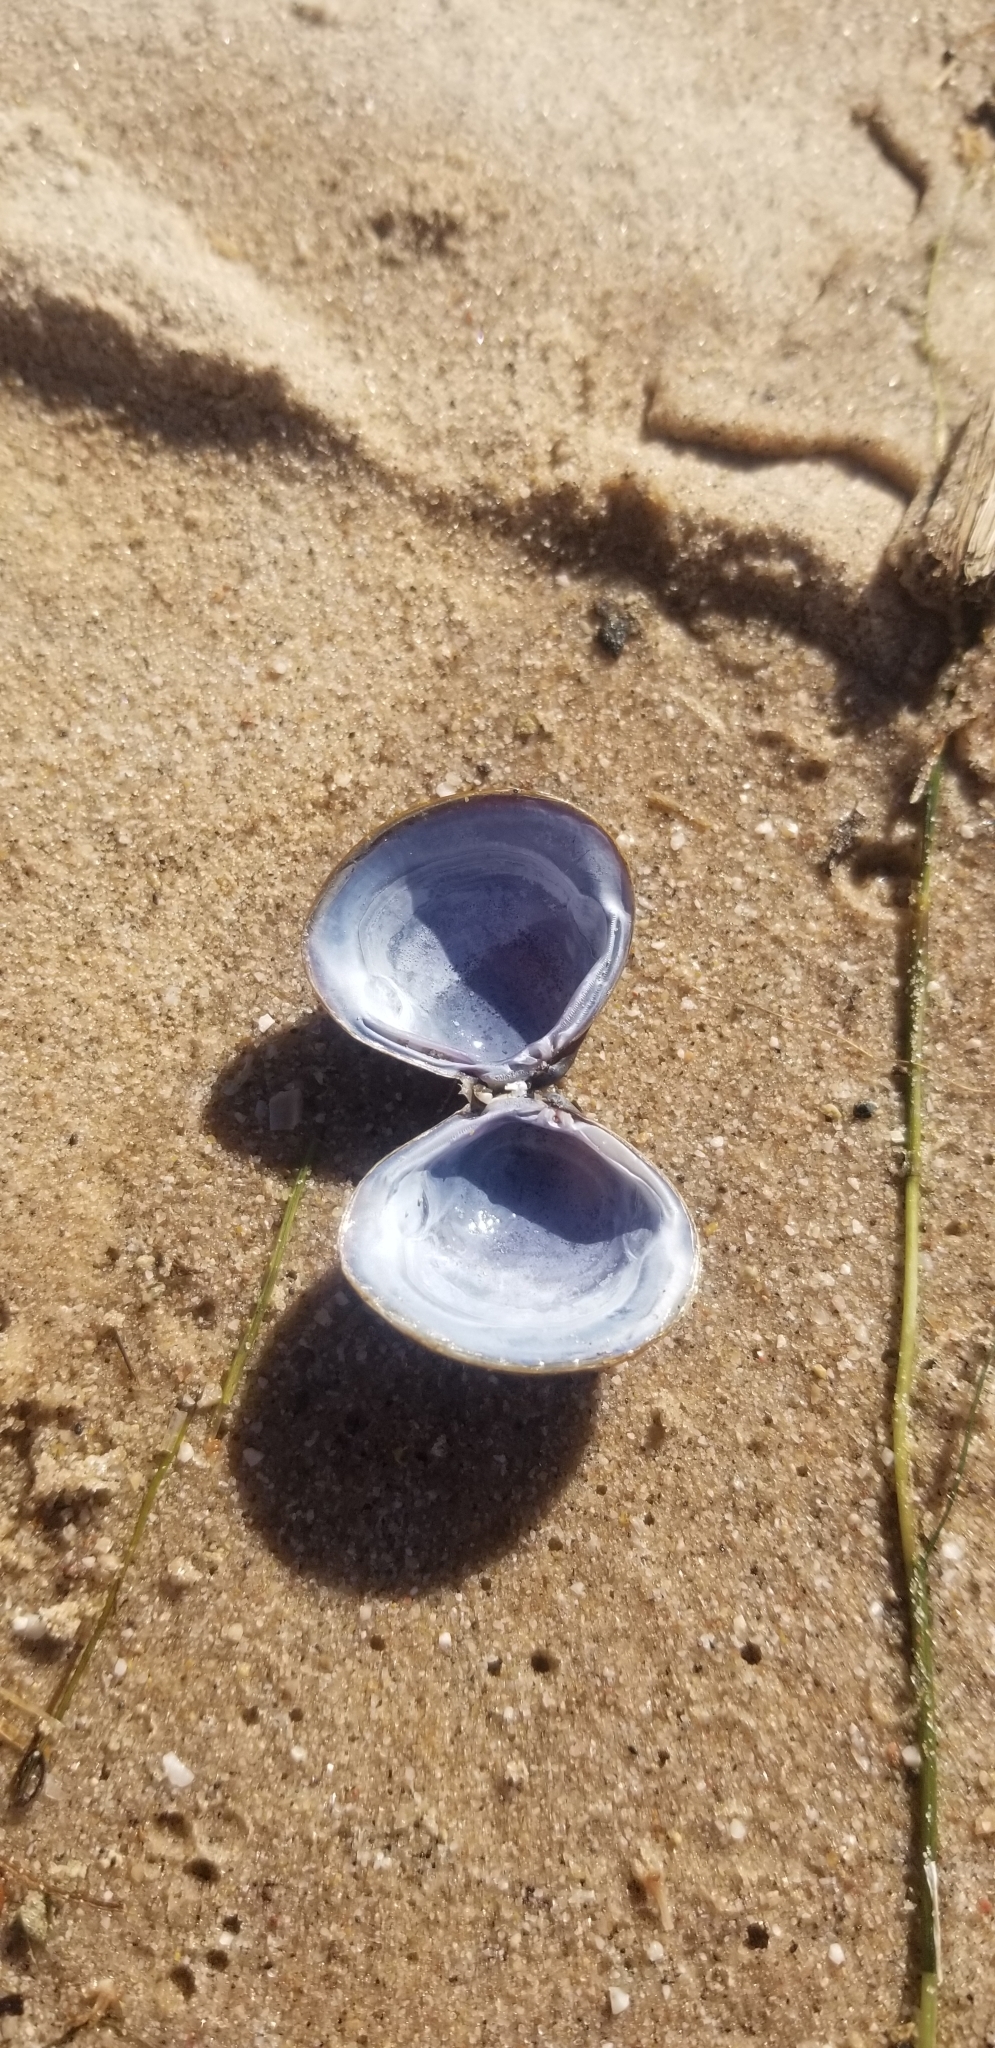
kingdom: Animalia
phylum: Mollusca
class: Bivalvia
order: Venerida
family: Cyrenidae
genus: Corbicula
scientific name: Corbicula fluminea
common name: Asian clam
